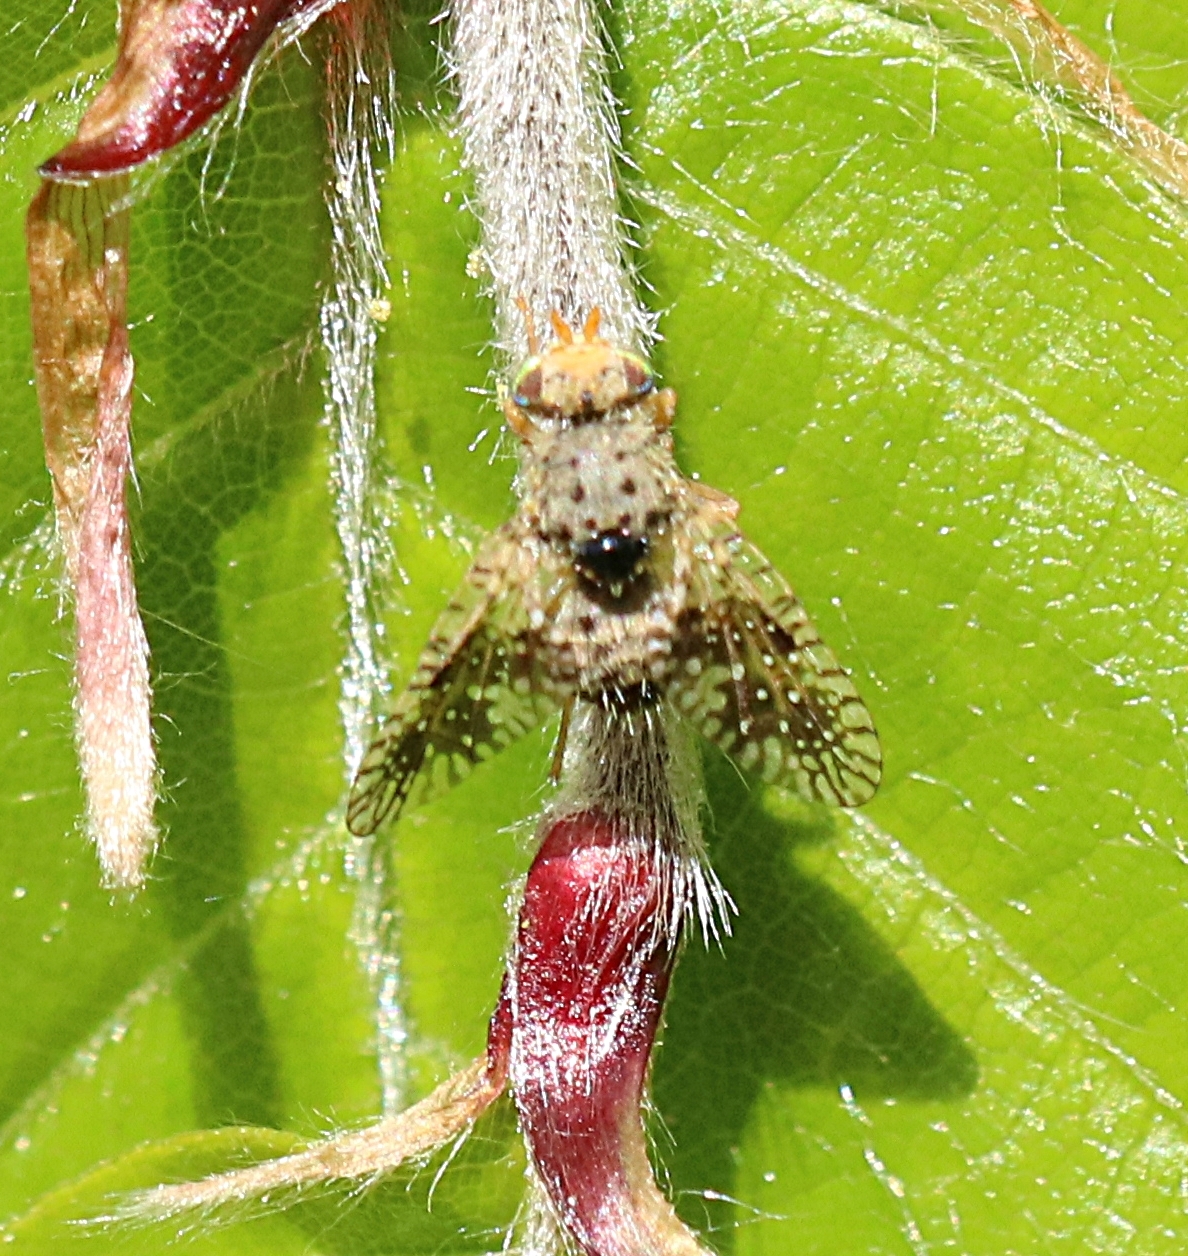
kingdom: Animalia
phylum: Arthropoda
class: Insecta
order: Diptera
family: Tephritidae
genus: Noeeta
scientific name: Noeeta pupillata
